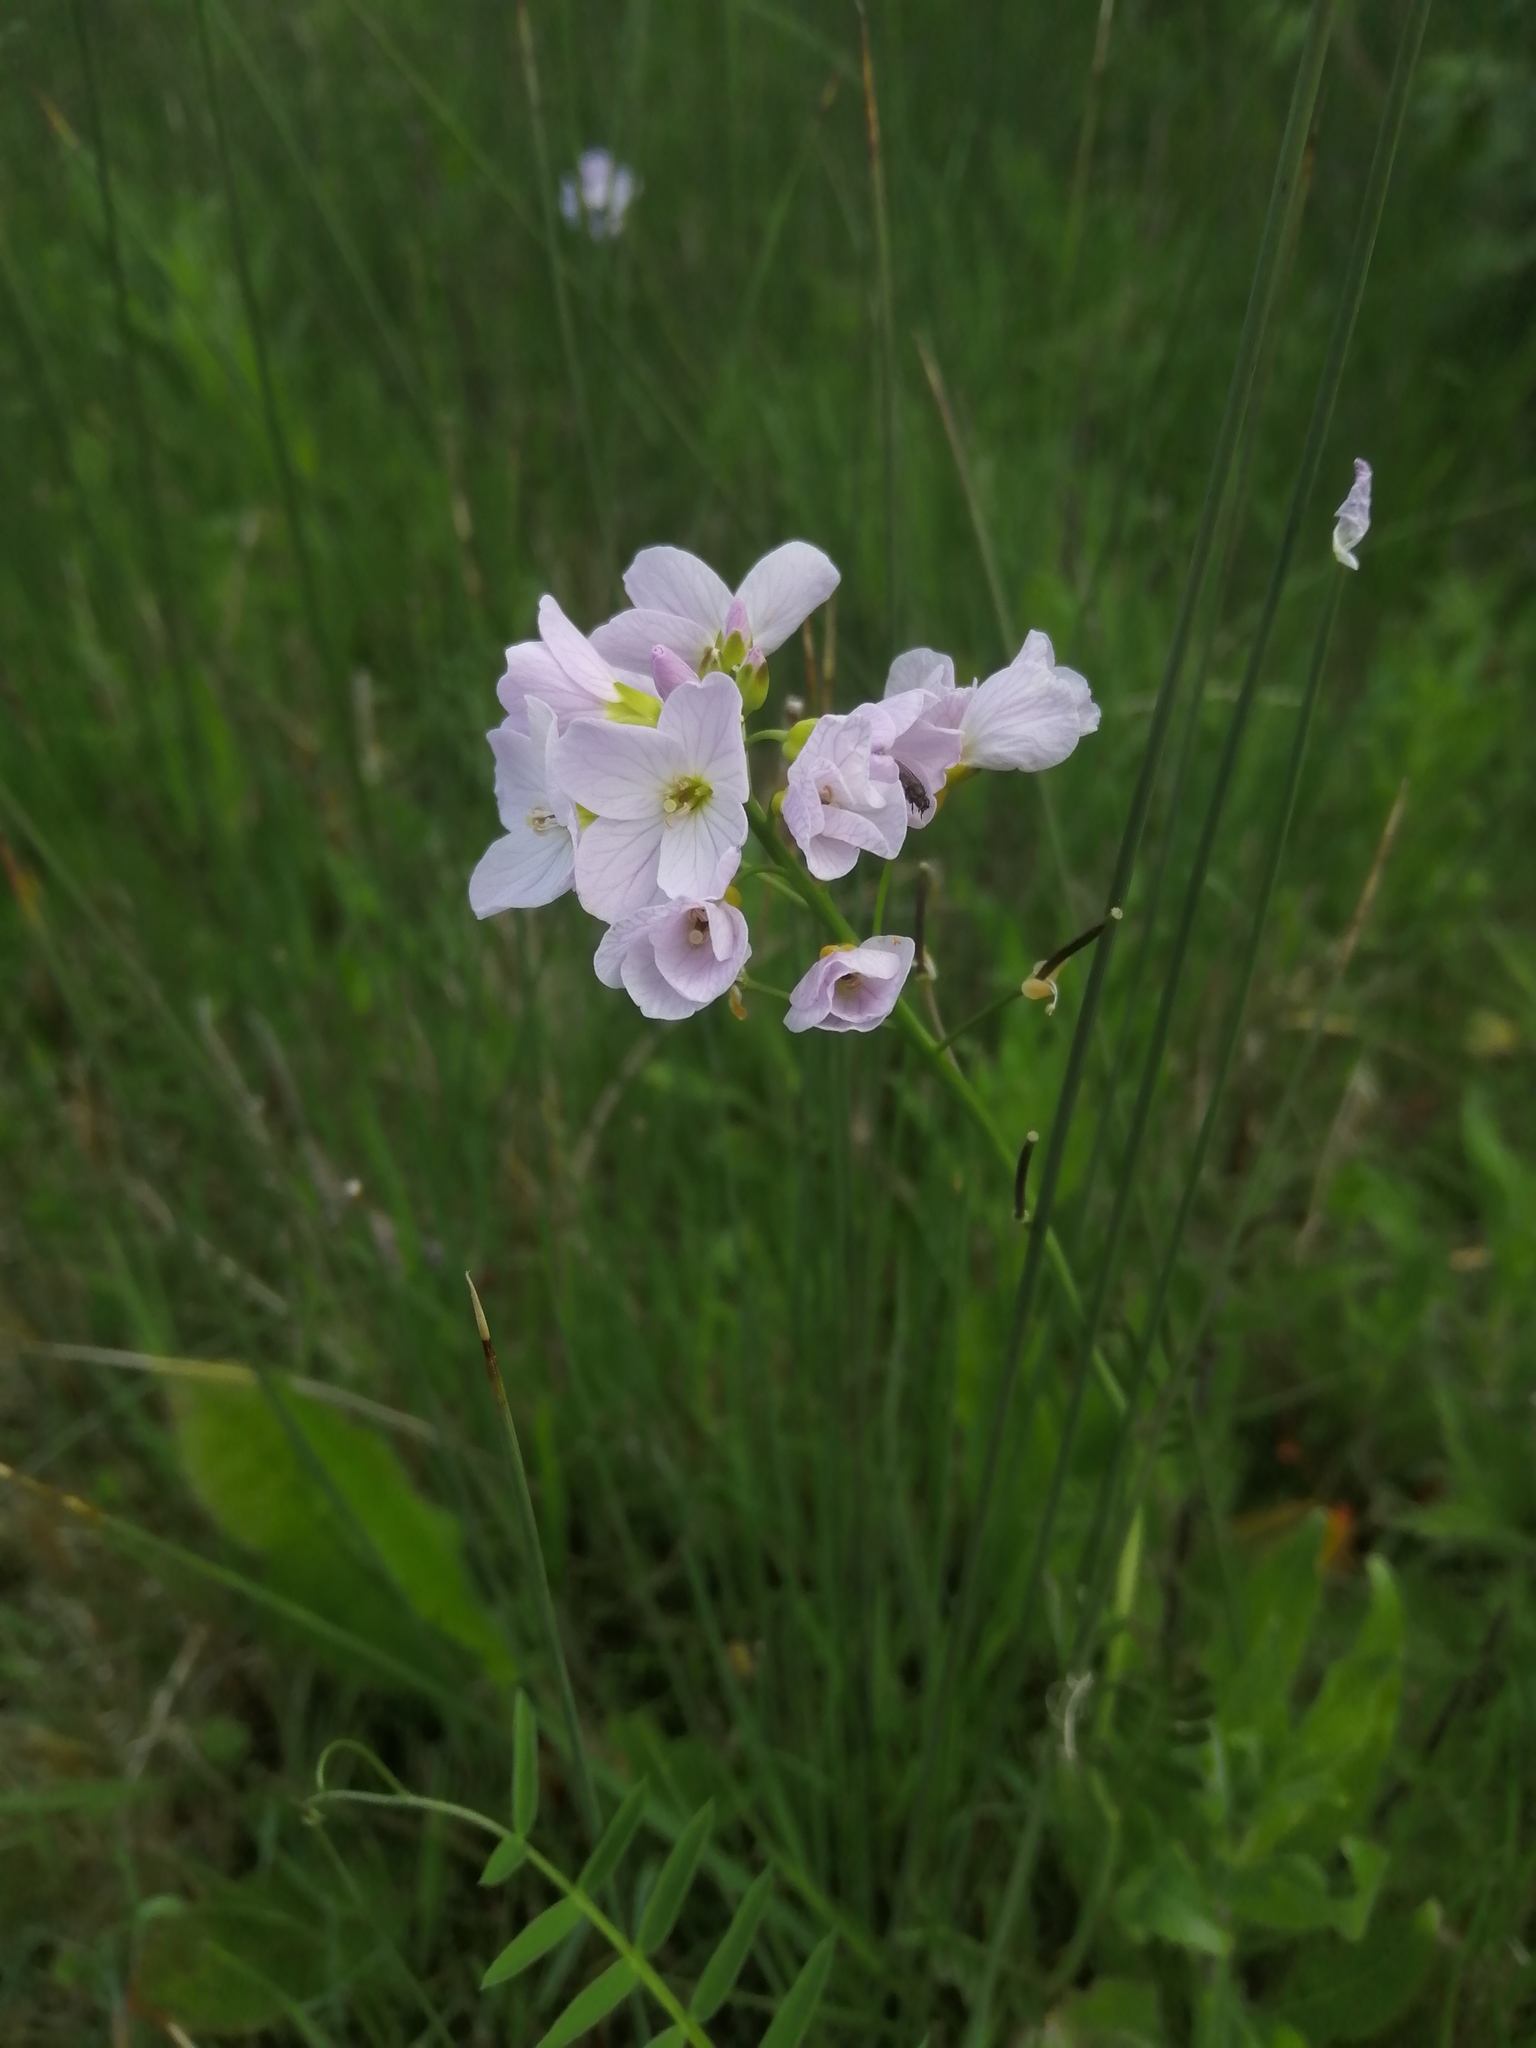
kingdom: Plantae
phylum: Tracheophyta
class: Magnoliopsida
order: Brassicales
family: Brassicaceae
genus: Cardamine
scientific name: Cardamine pratensis
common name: Cuckoo flower
